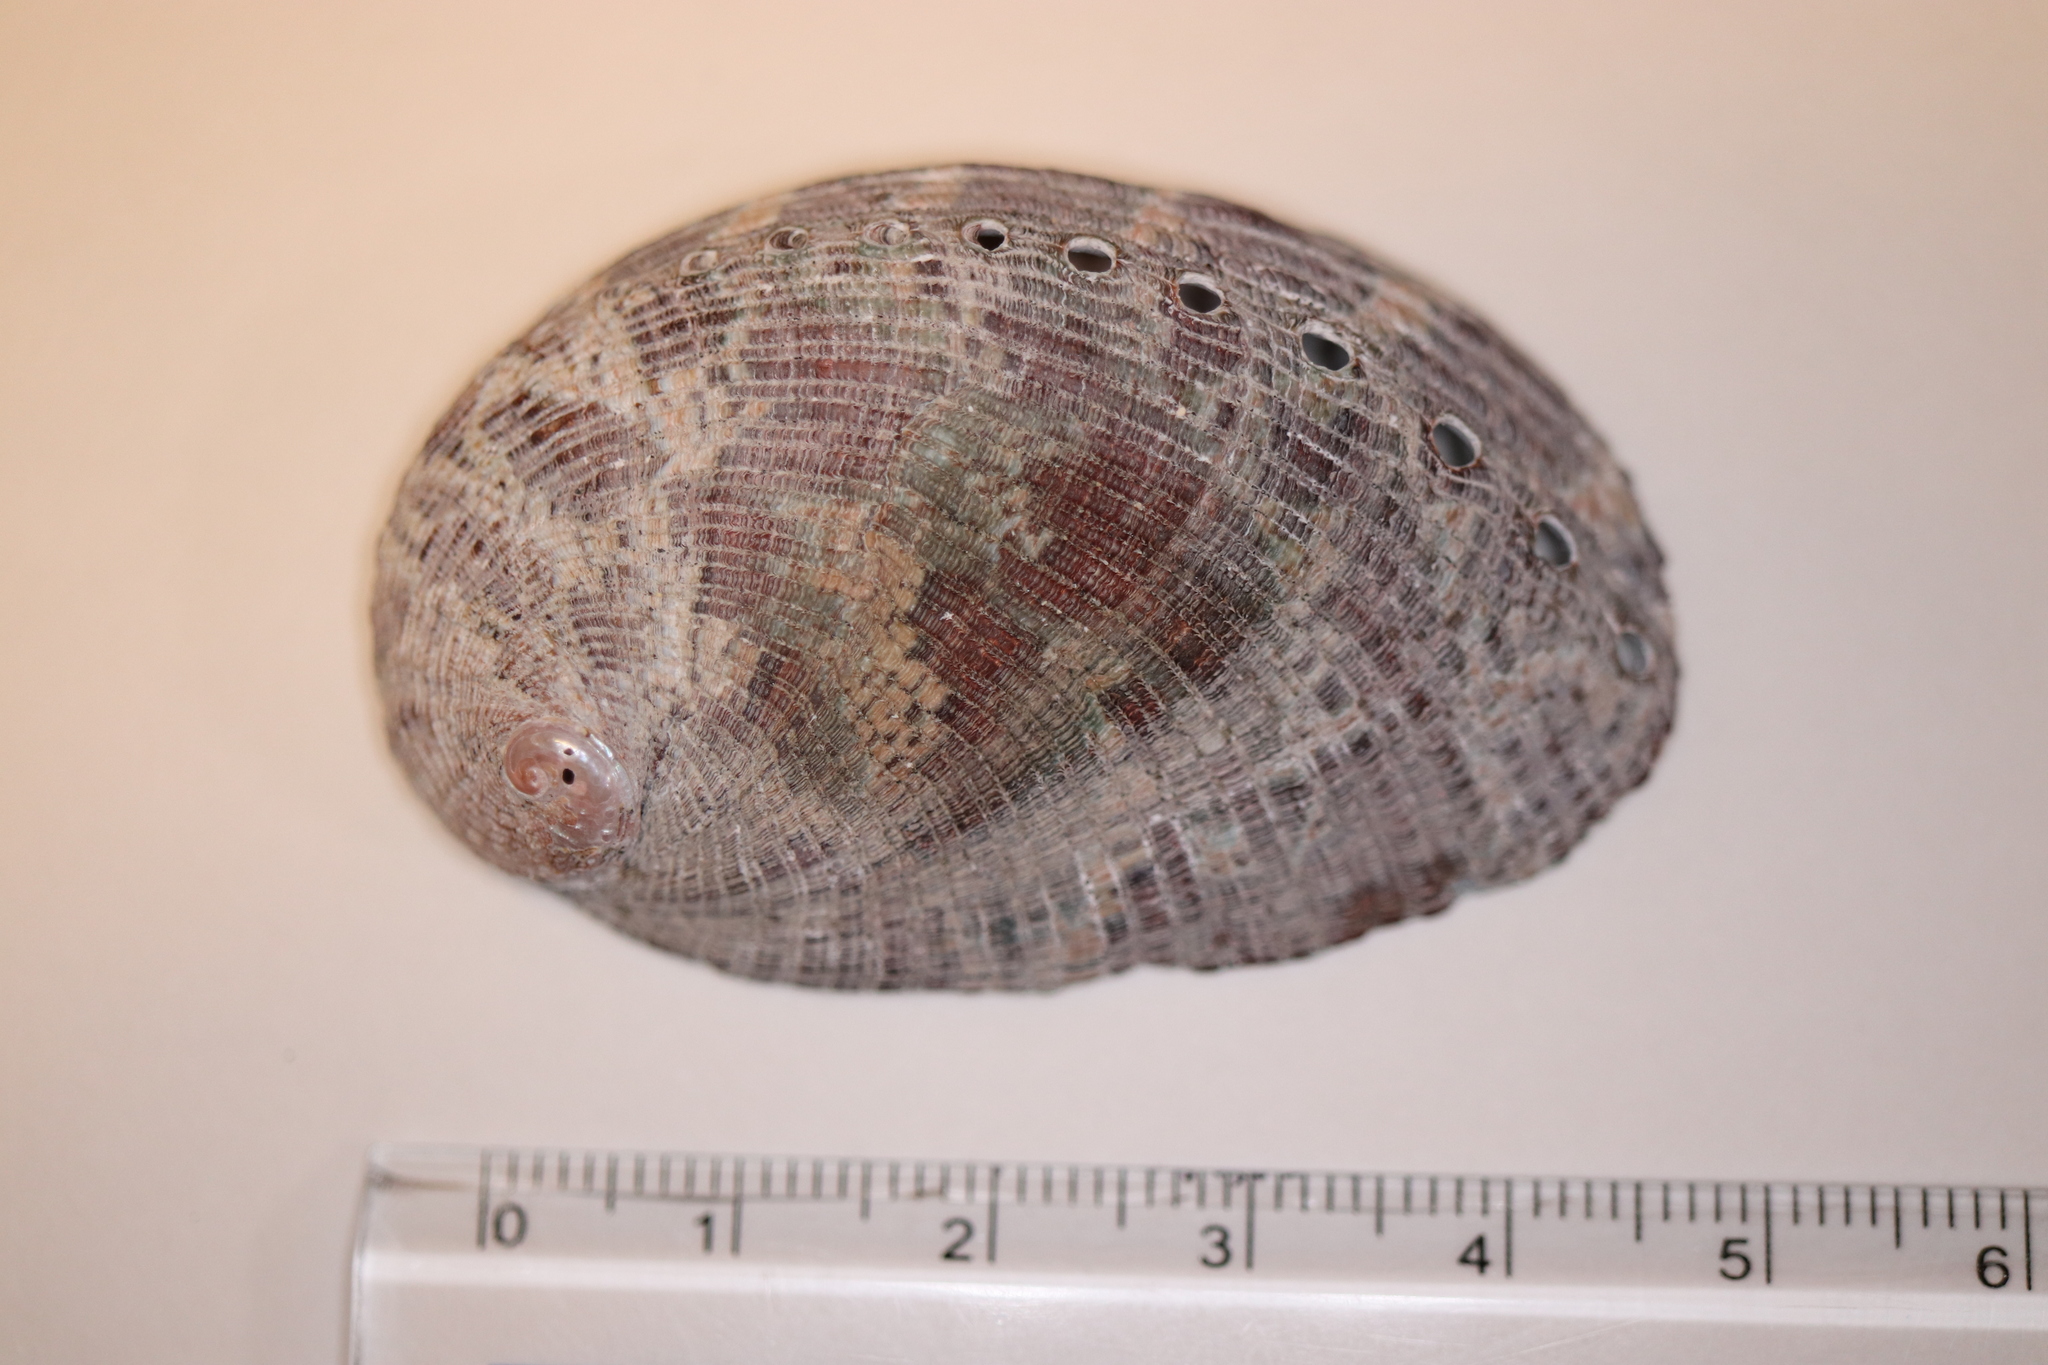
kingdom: Animalia
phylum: Mollusca
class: Gastropoda
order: Lepetellida
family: Haliotidae
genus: Haliotis
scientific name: Haliotis diversicolor
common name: Multicolored abalone
